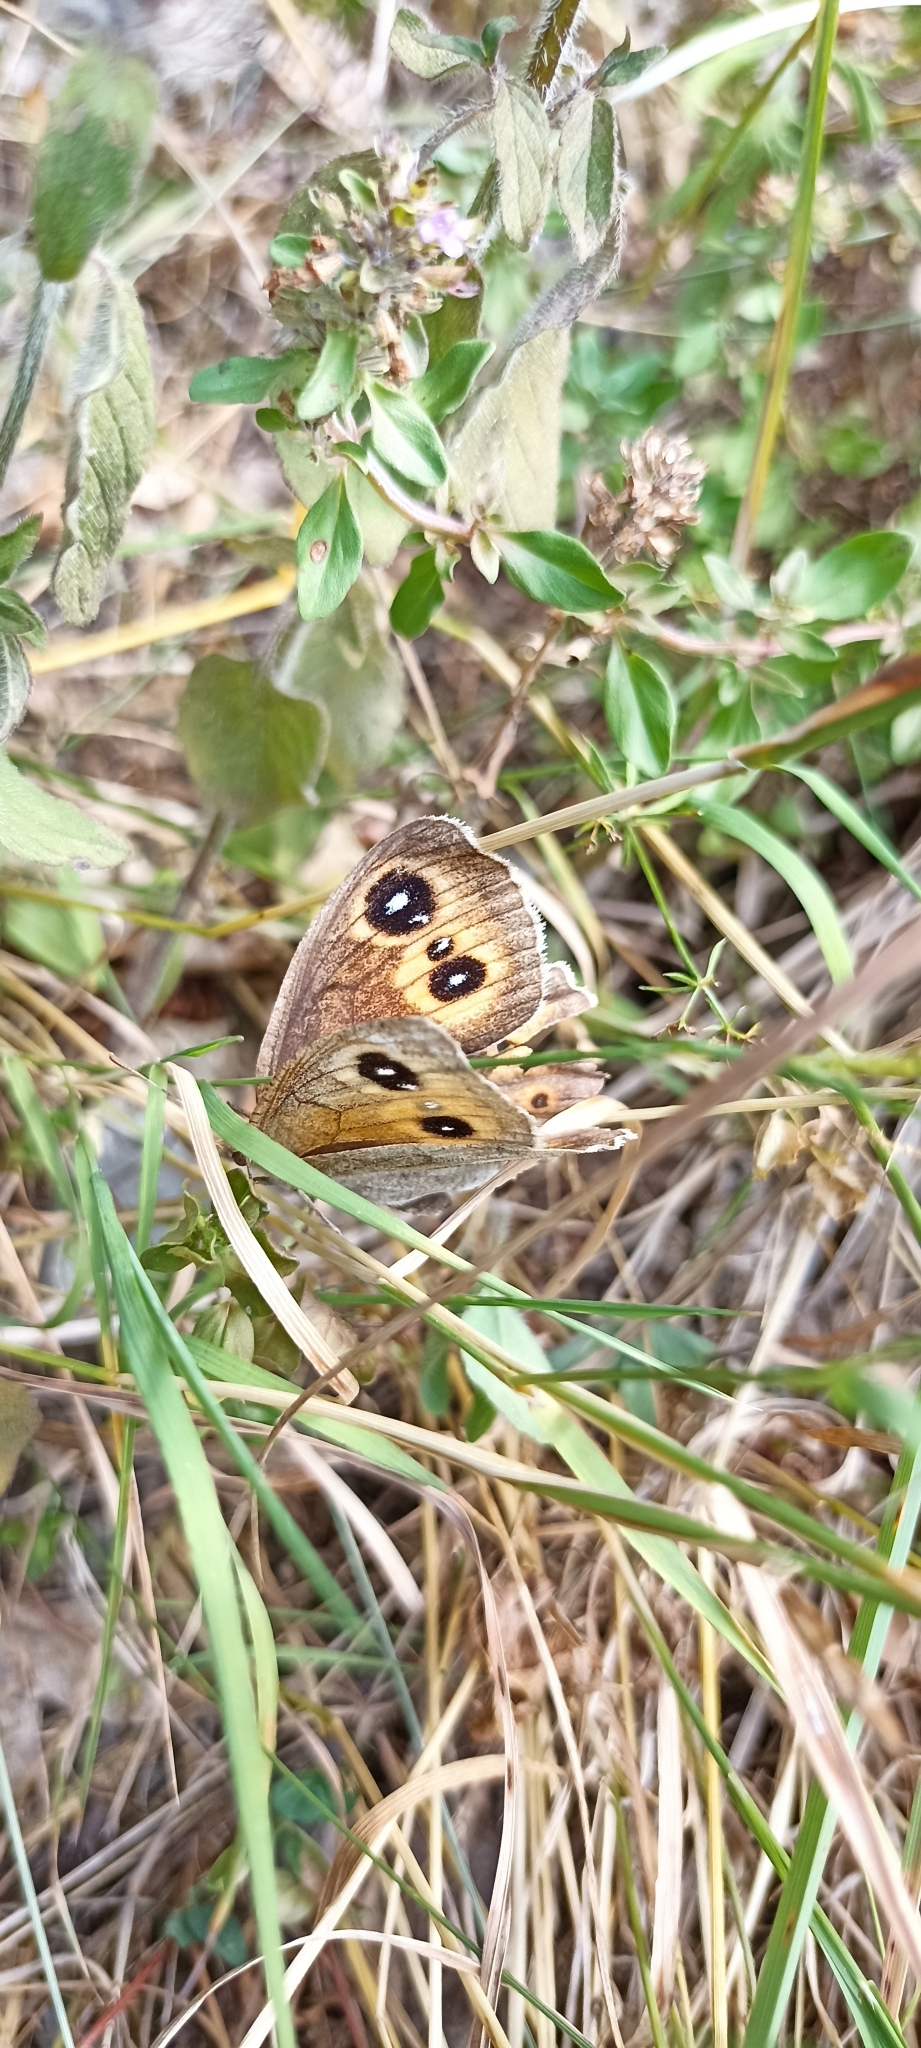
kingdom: Animalia
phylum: Arthropoda
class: Insecta
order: Lepidoptera
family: Nymphalidae
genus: Satyrus
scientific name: Satyrus ferula
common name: Great sooty satyr
